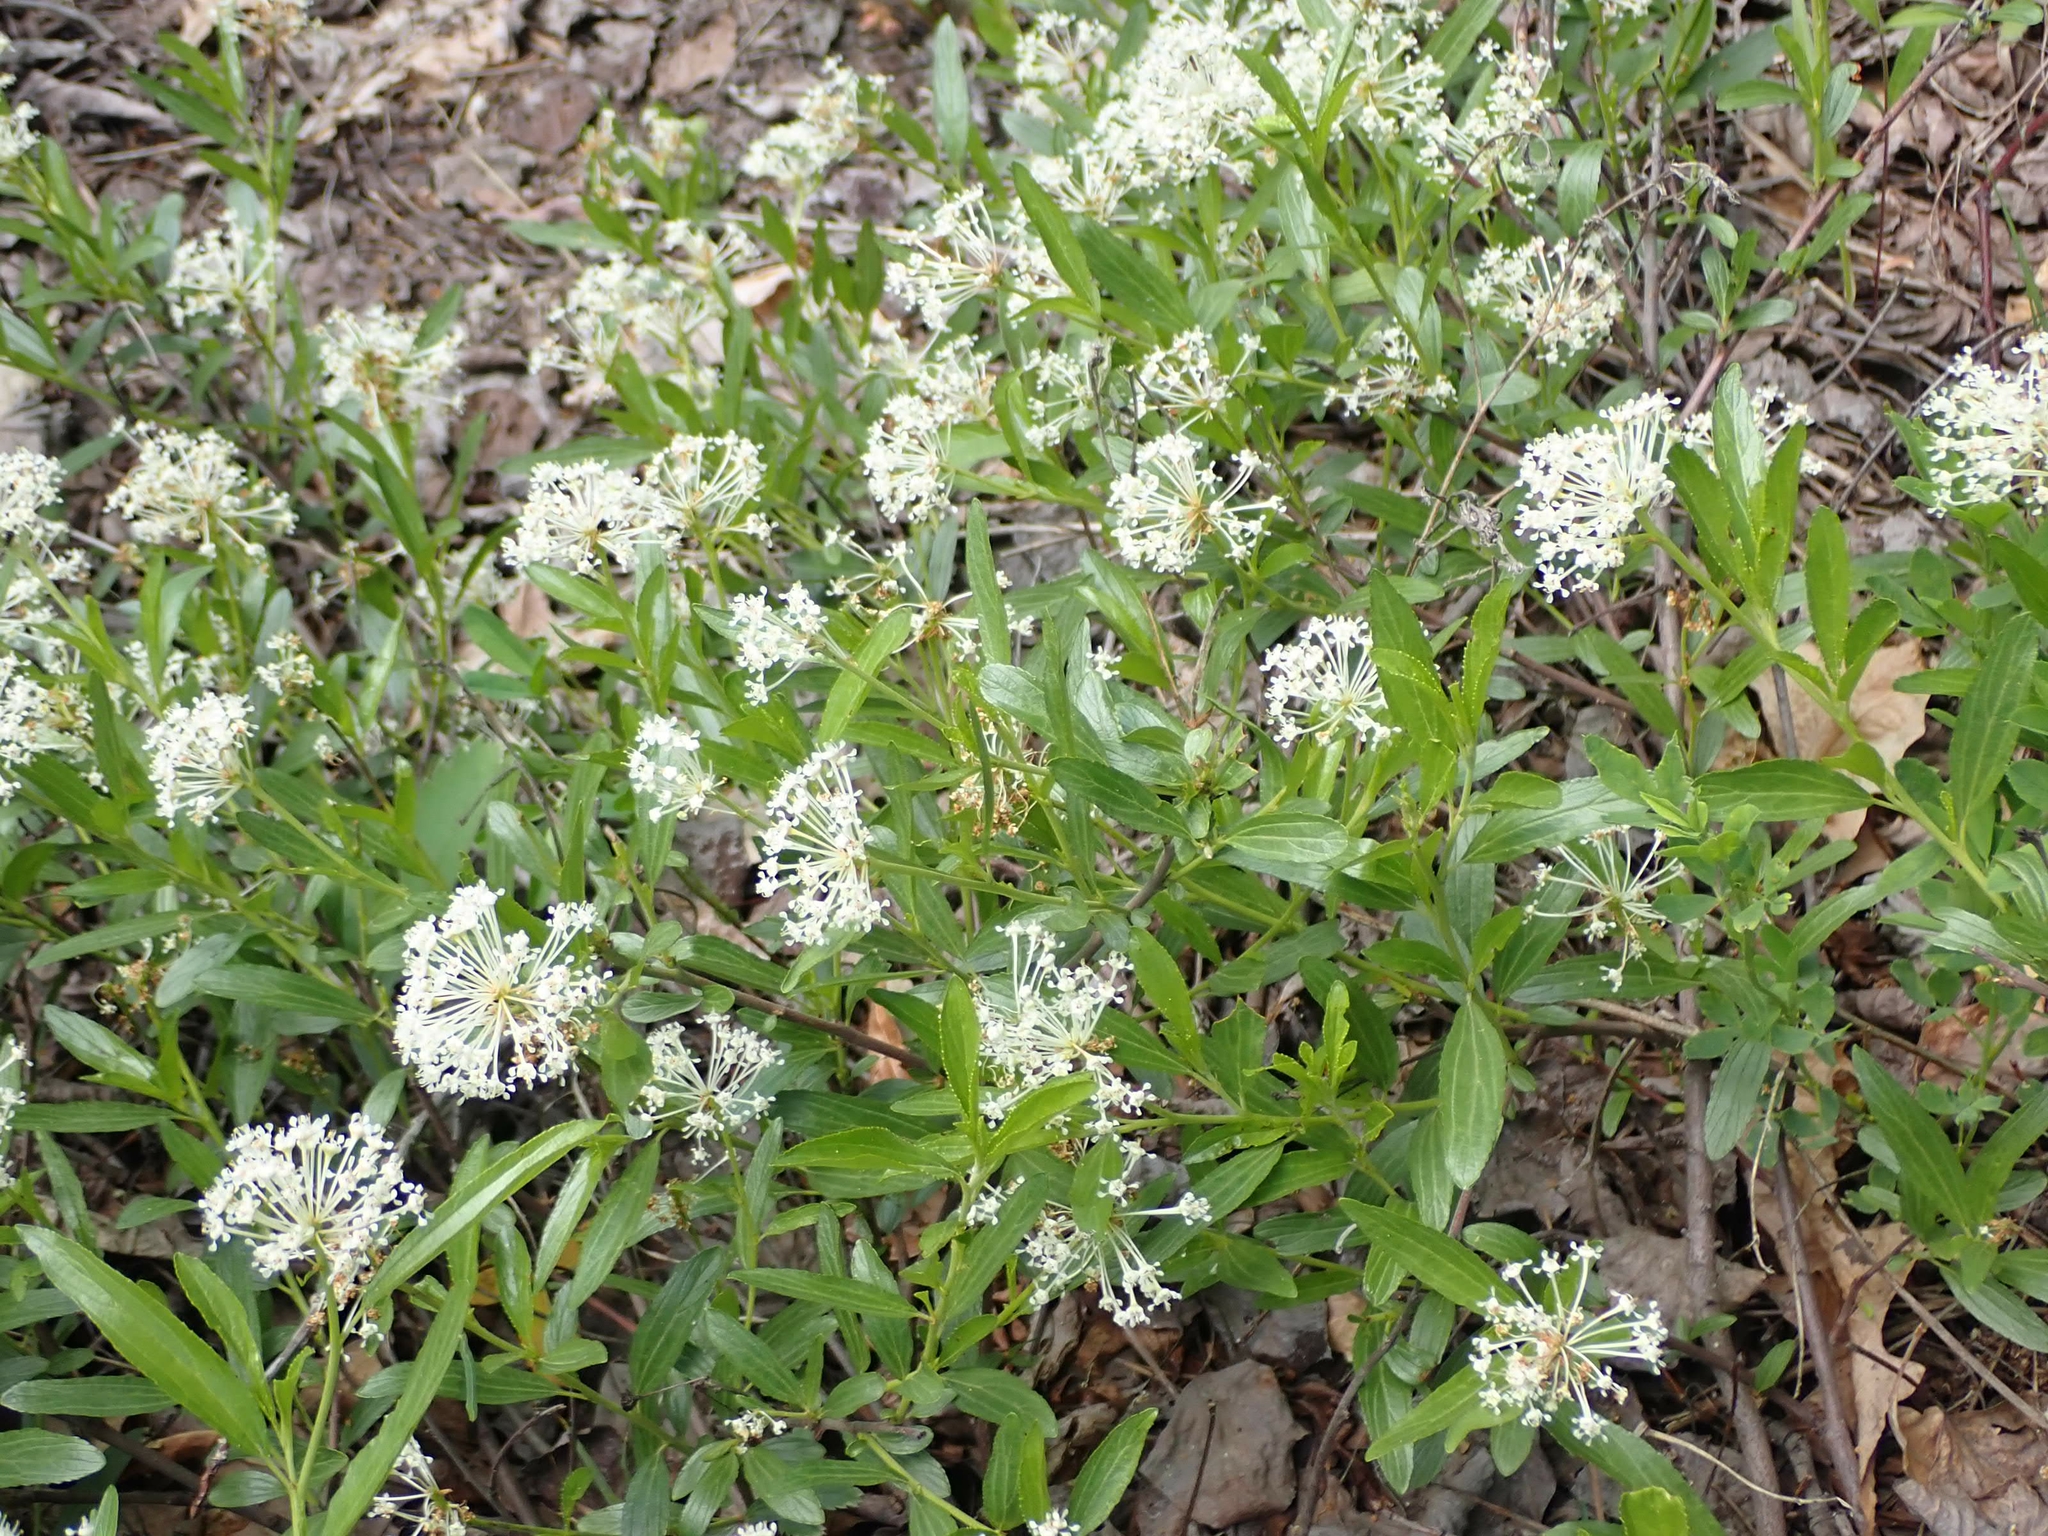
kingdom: Plantae
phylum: Tracheophyta
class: Magnoliopsida
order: Rosales
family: Rhamnaceae
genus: Ceanothus
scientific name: Ceanothus herbaceus
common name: Inland ceanothus
